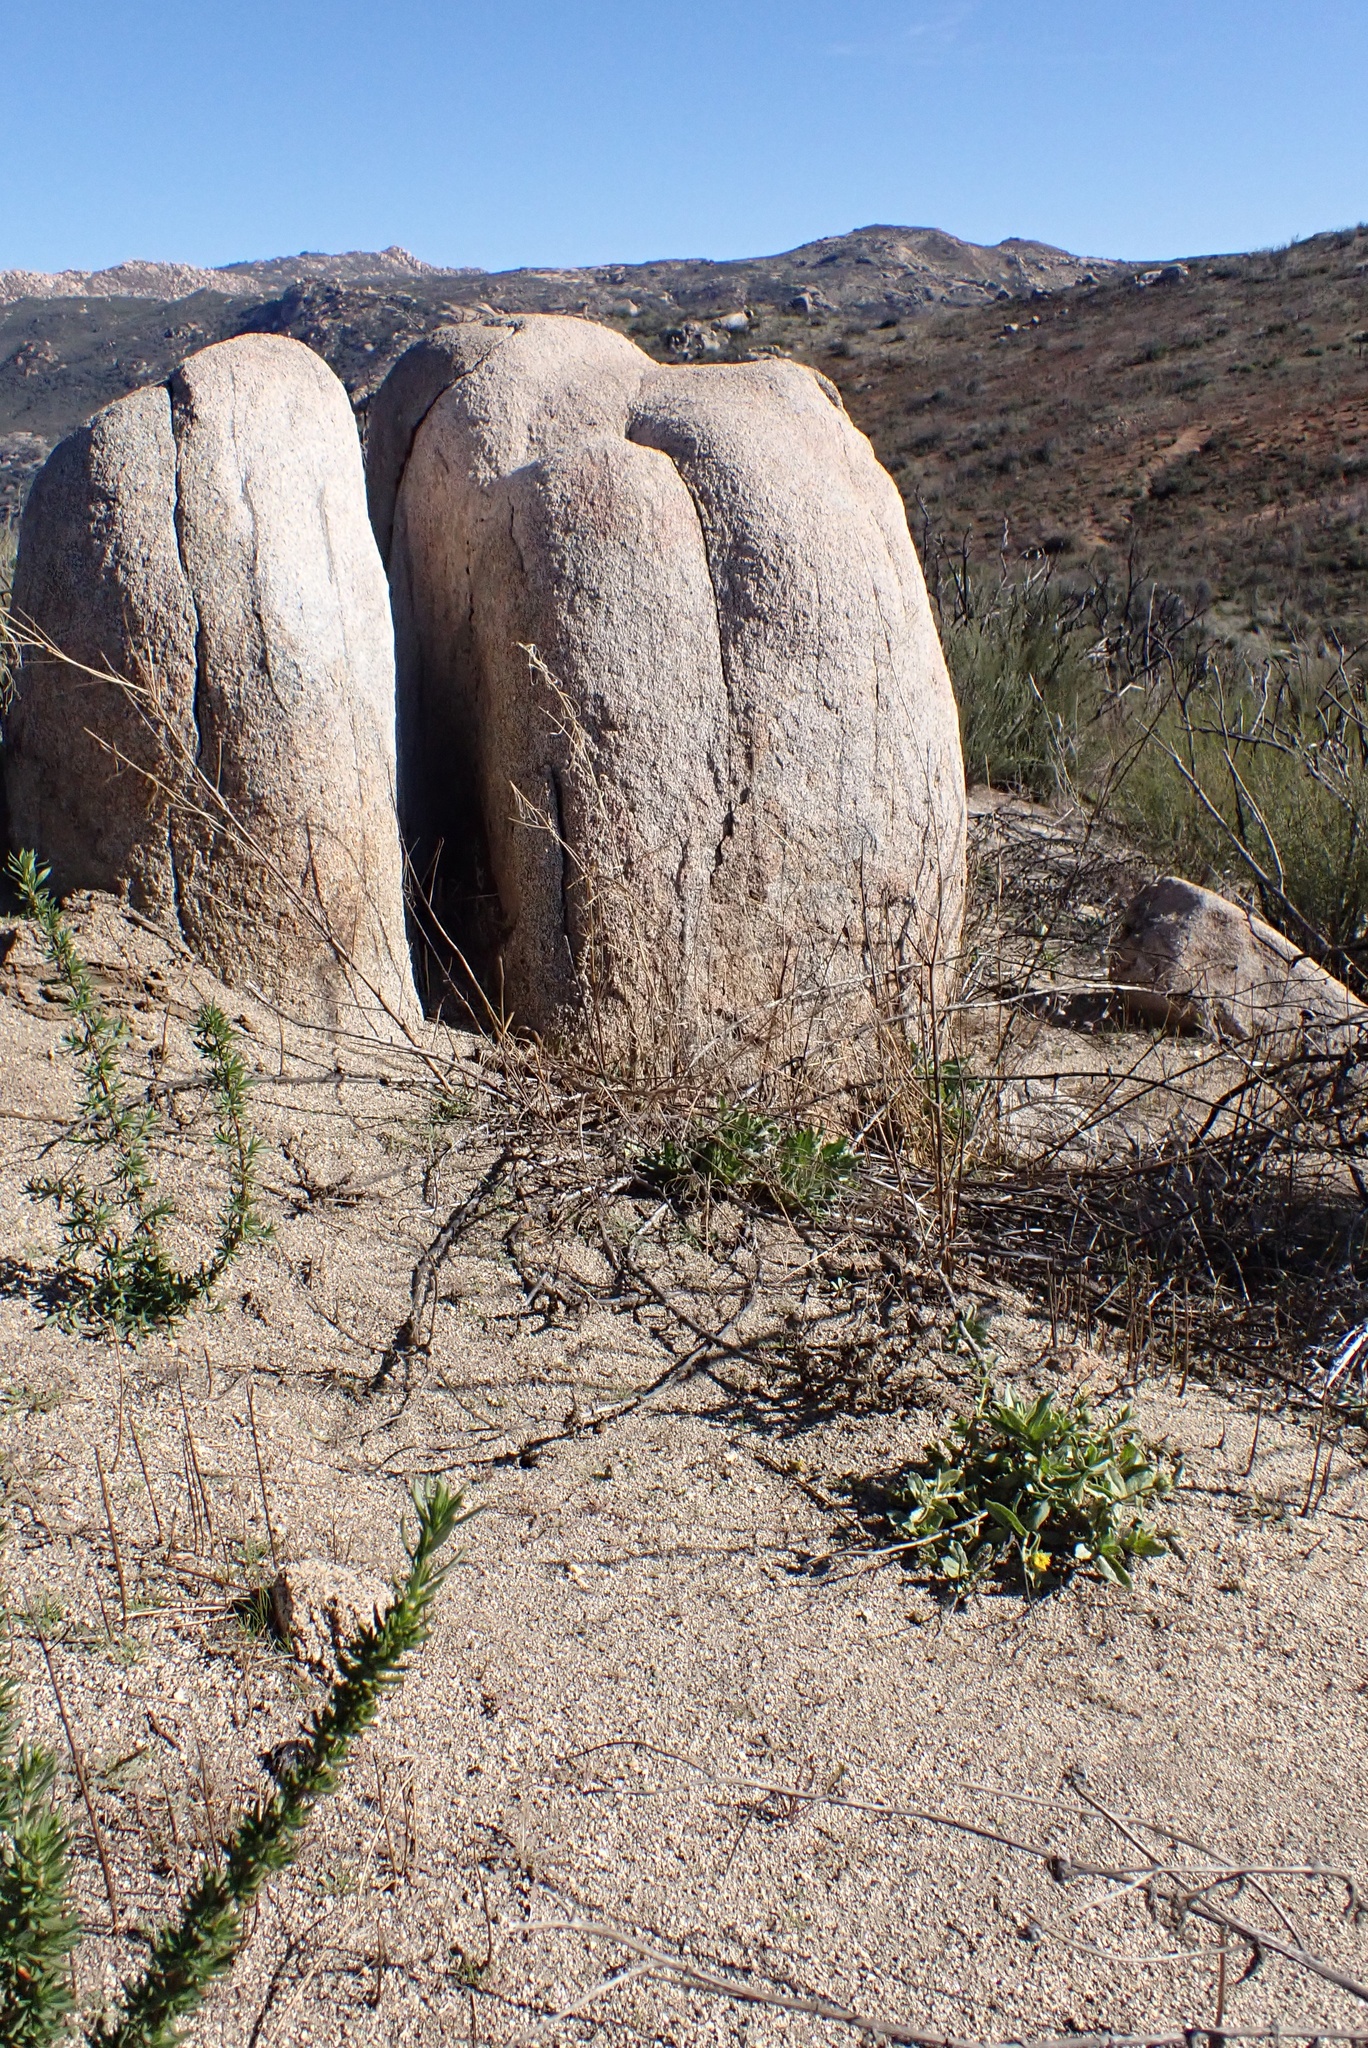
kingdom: Plantae
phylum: Tracheophyta
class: Magnoliopsida
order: Asterales
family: Asteraceae
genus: Geraea
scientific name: Geraea viscida
